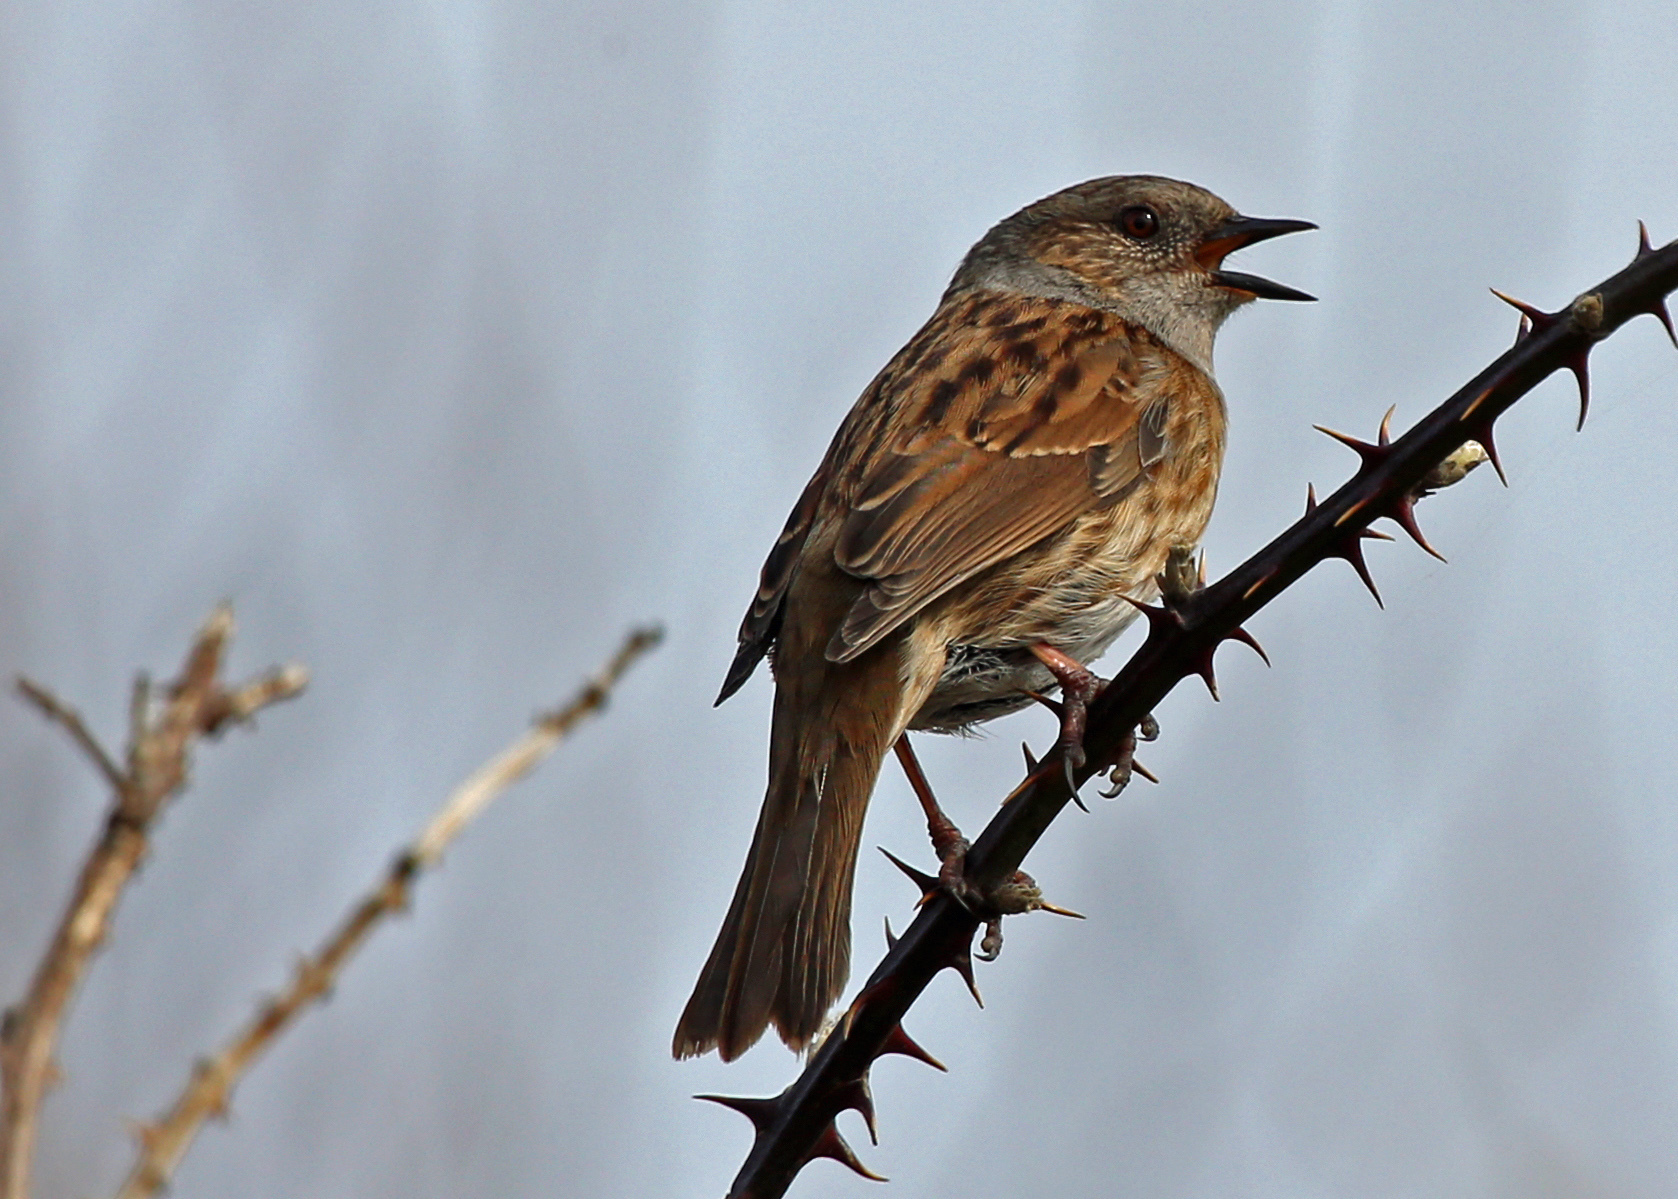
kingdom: Animalia
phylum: Chordata
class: Aves
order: Passeriformes
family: Prunellidae
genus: Prunella
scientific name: Prunella modularis
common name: Dunnock
